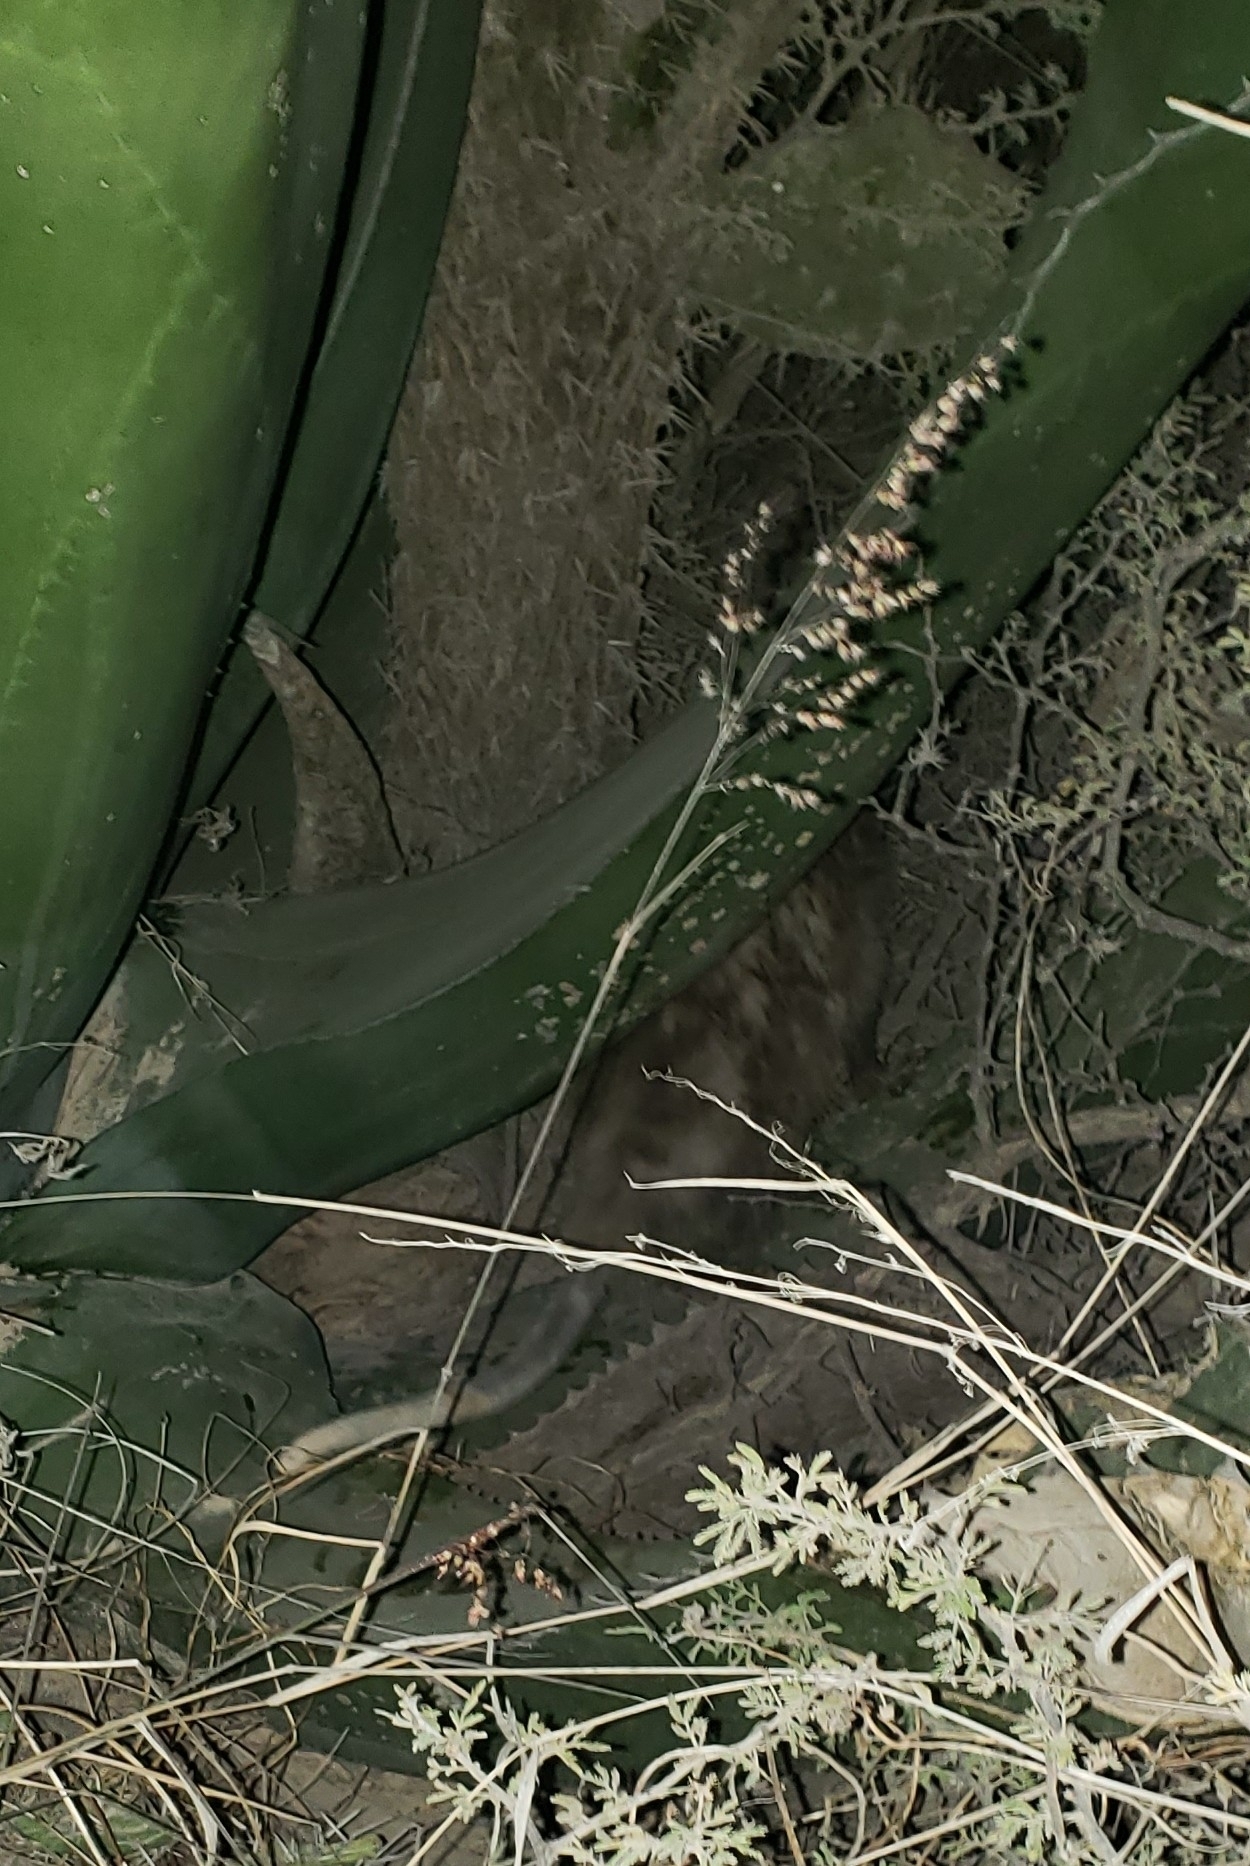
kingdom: Animalia
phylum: Chordata
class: Mammalia
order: Didelphimorphia
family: Didelphidae
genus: Didelphis
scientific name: Didelphis virginiana
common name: Virginia opossum
